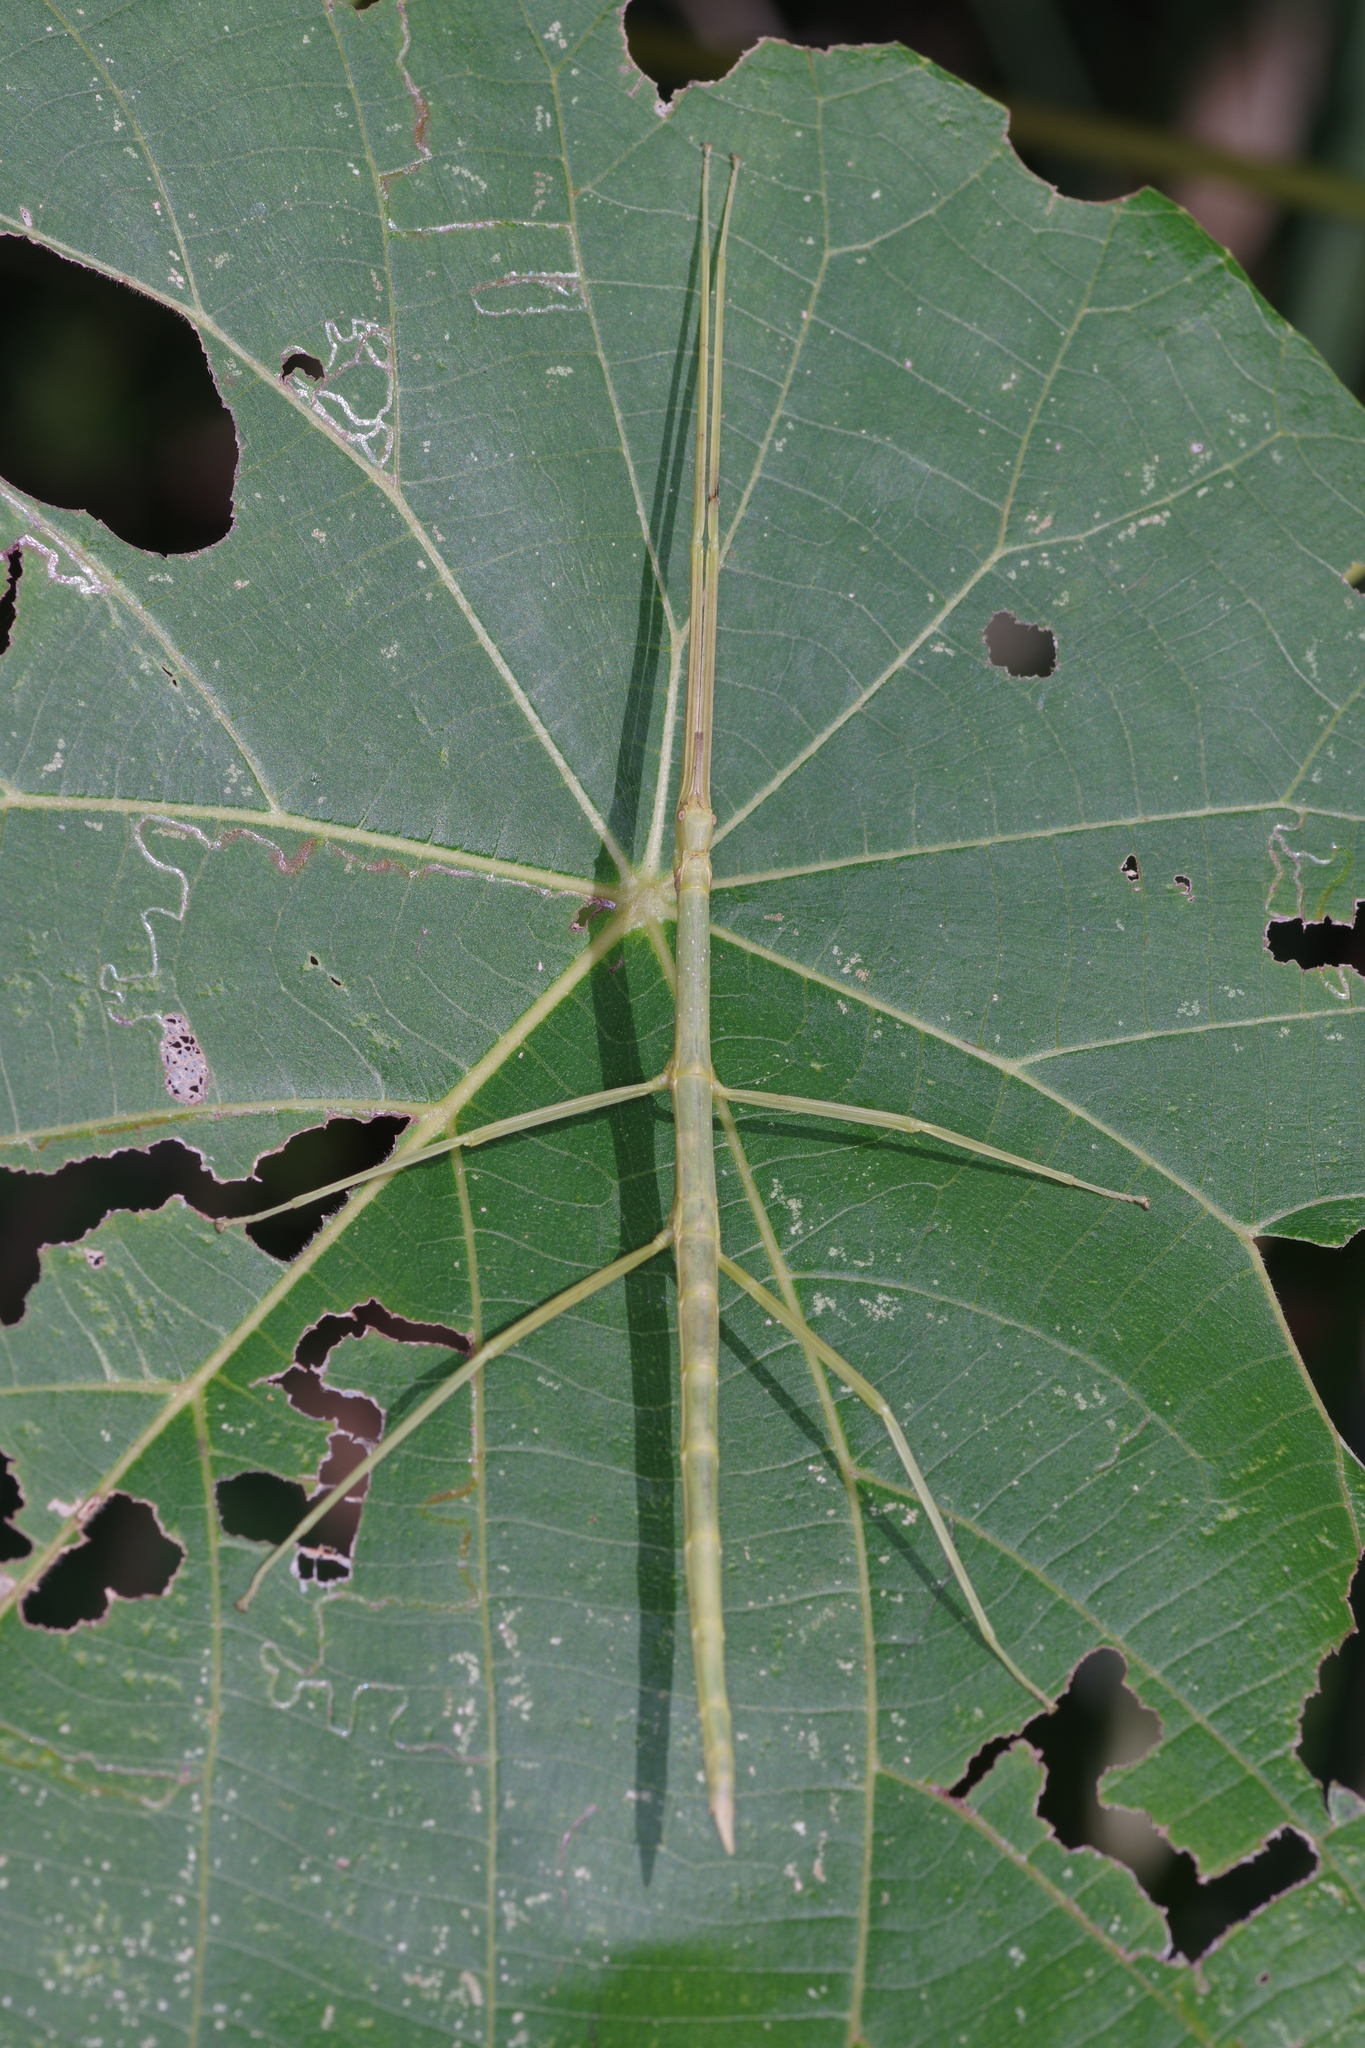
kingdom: Animalia
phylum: Arthropoda
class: Insecta
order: Phasmida
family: Phasmatidae
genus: Entoria
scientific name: Entoria ishigakiensis
